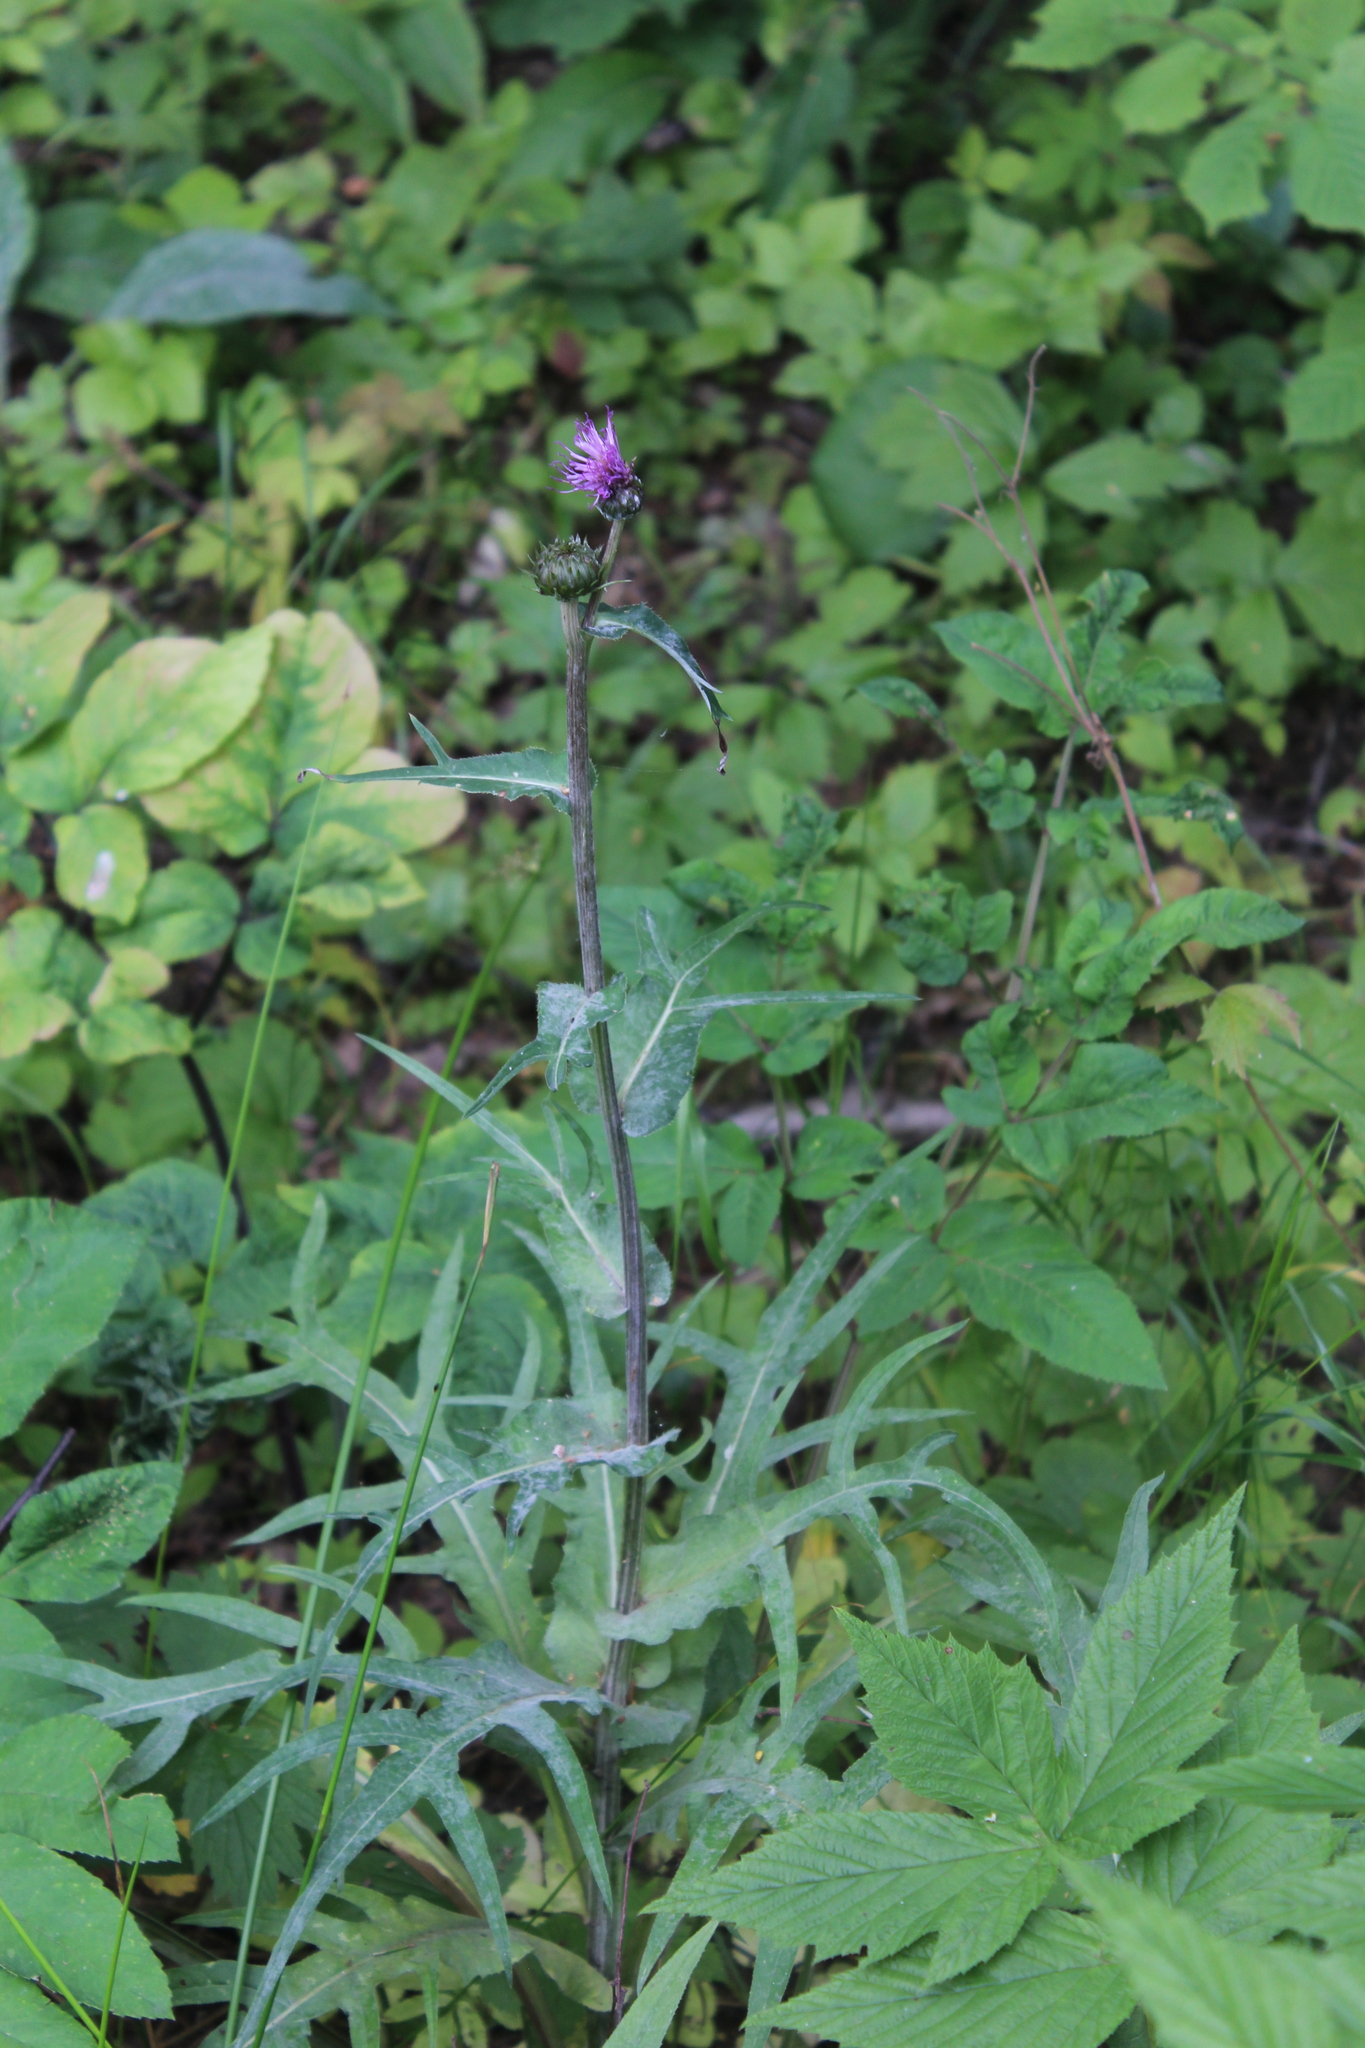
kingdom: Plantae
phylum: Tracheophyta
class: Magnoliopsida
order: Asterales
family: Asteraceae
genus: Cirsium
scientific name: Cirsium heterophyllum
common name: Melancholy thistle
